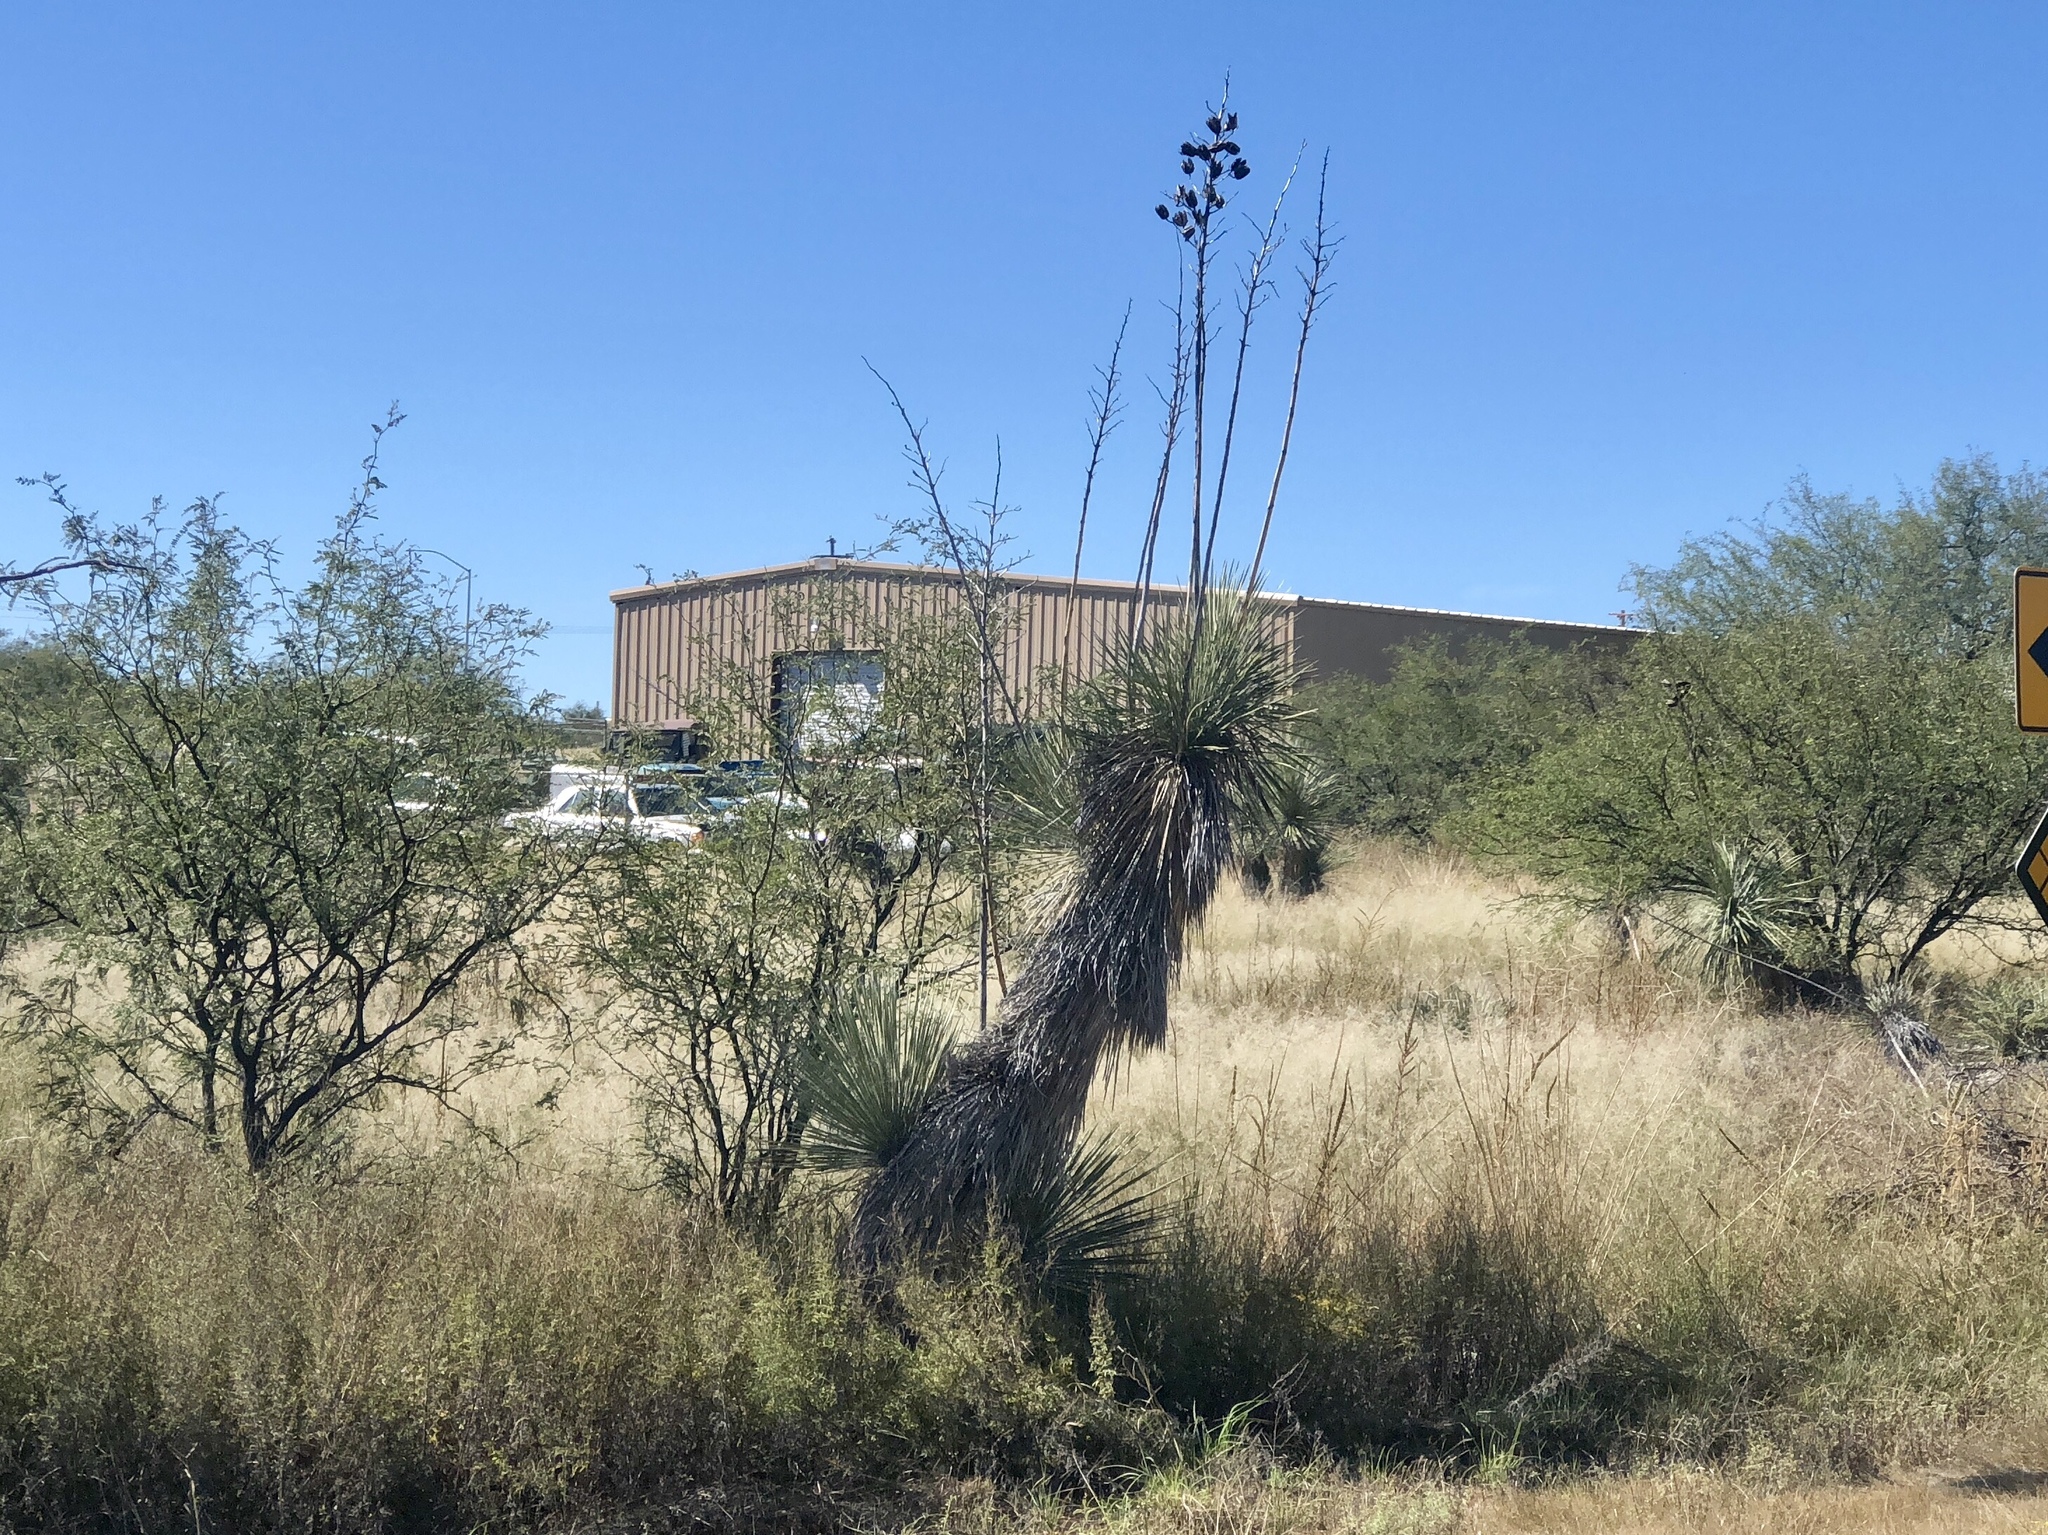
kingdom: Plantae
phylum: Tracheophyta
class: Liliopsida
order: Asparagales
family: Asparagaceae
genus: Yucca
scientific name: Yucca elata
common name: Palmella
